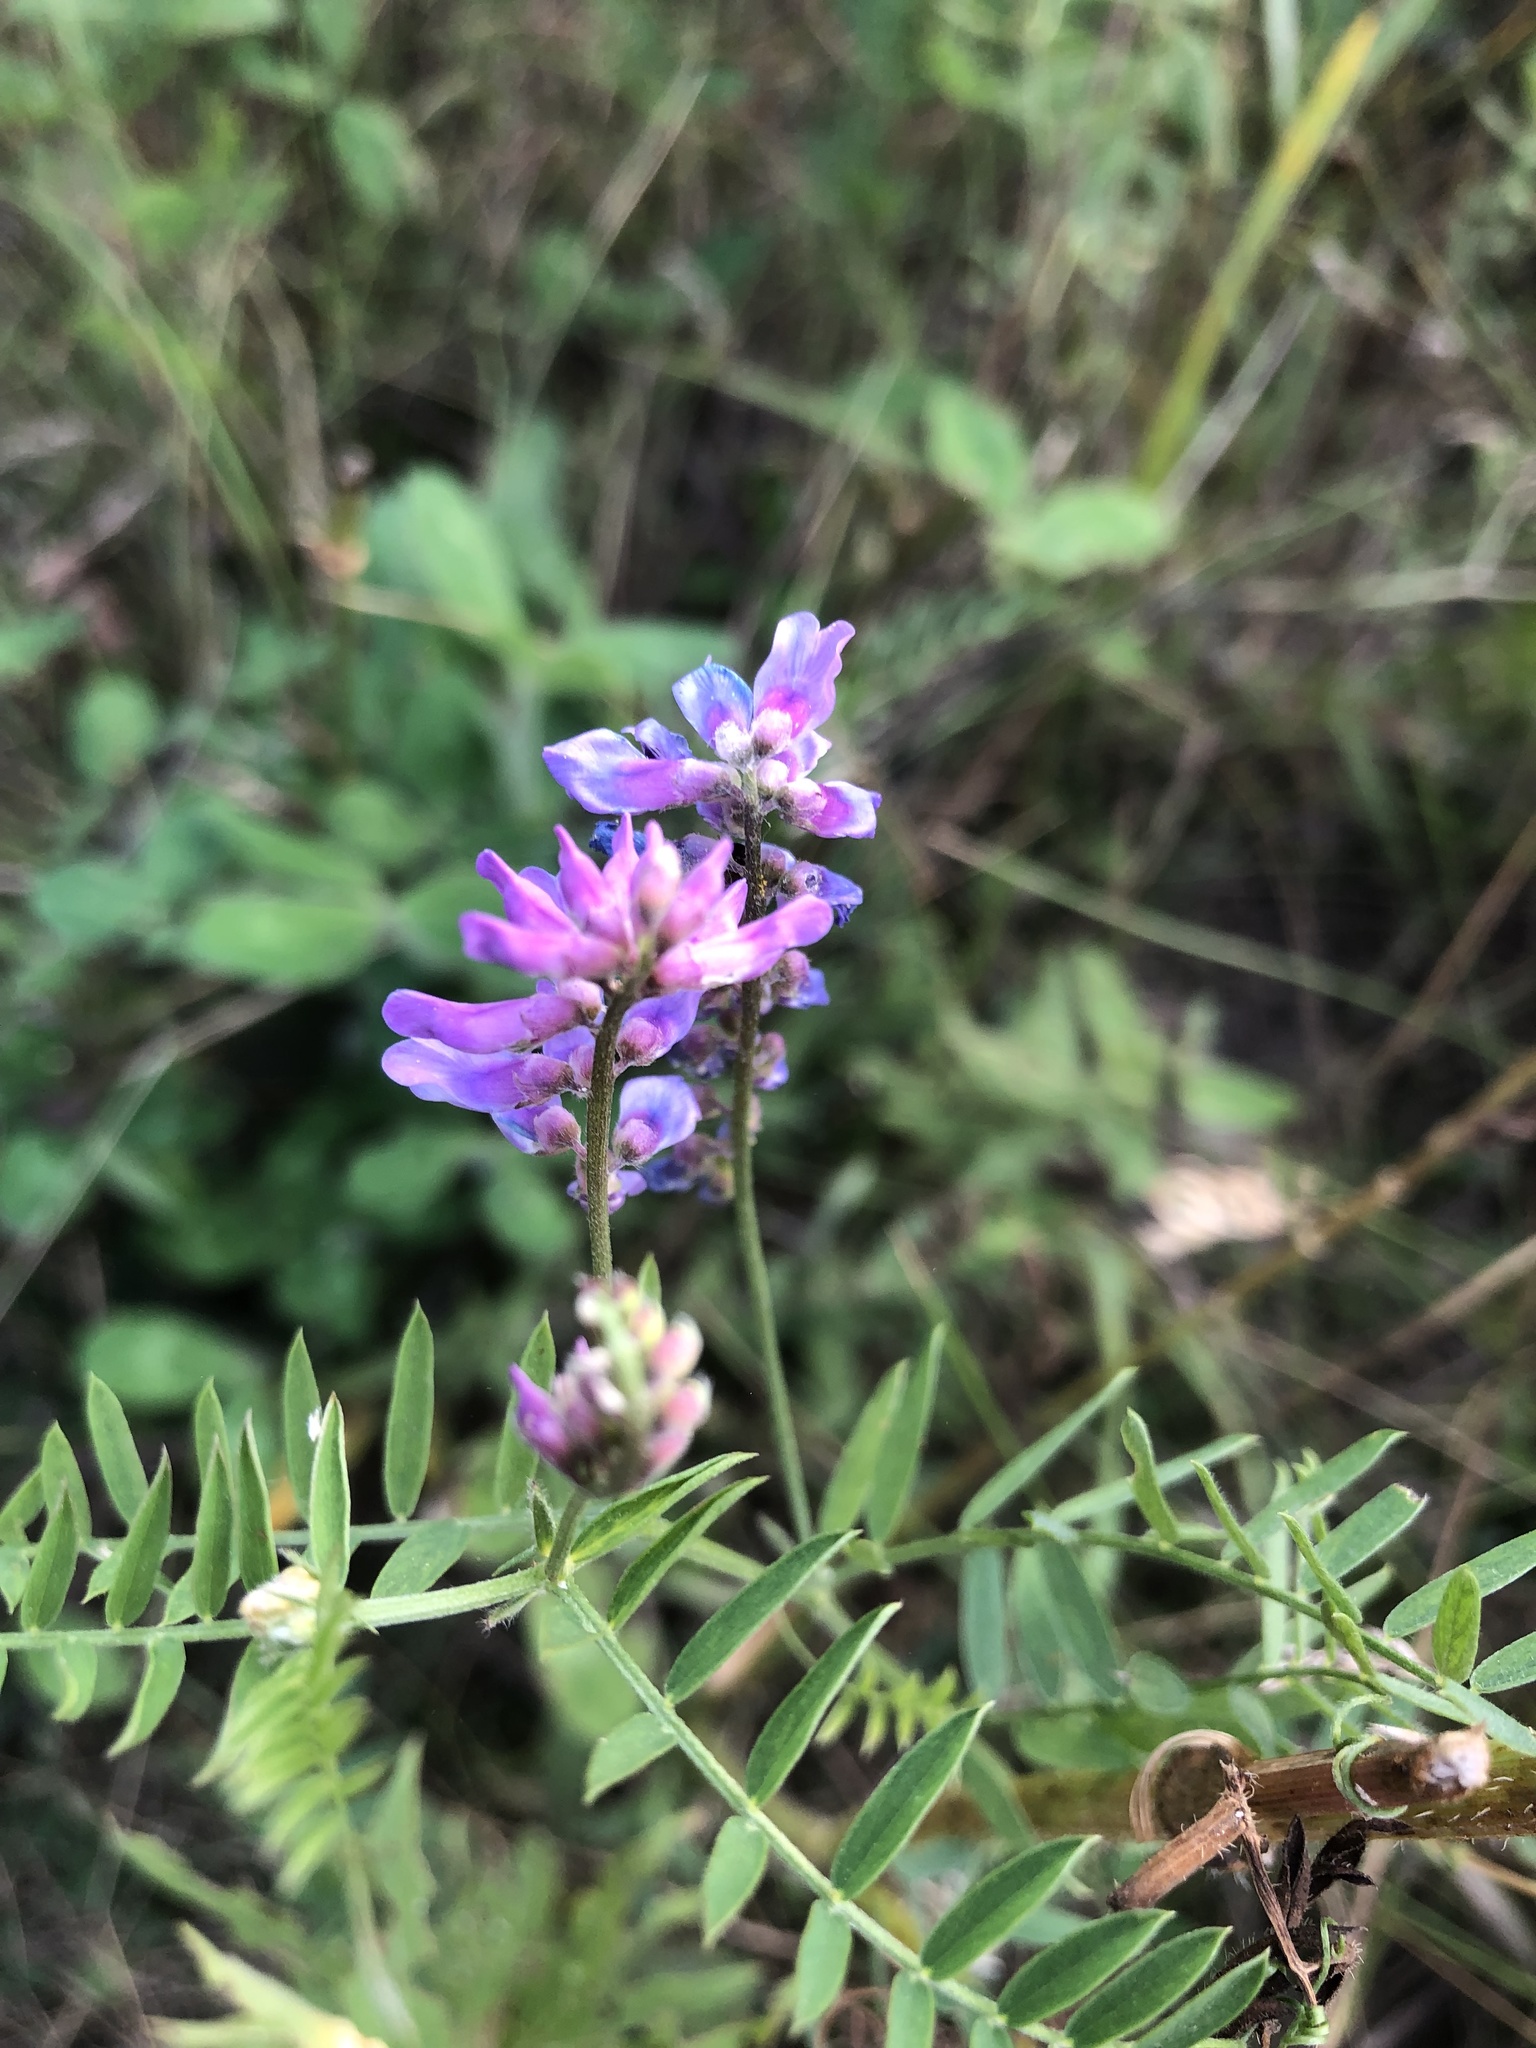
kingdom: Plantae
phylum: Tracheophyta
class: Magnoliopsida
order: Fabales
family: Fabaceae
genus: Vicia
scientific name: Vicia cracca
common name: Bird vetch
